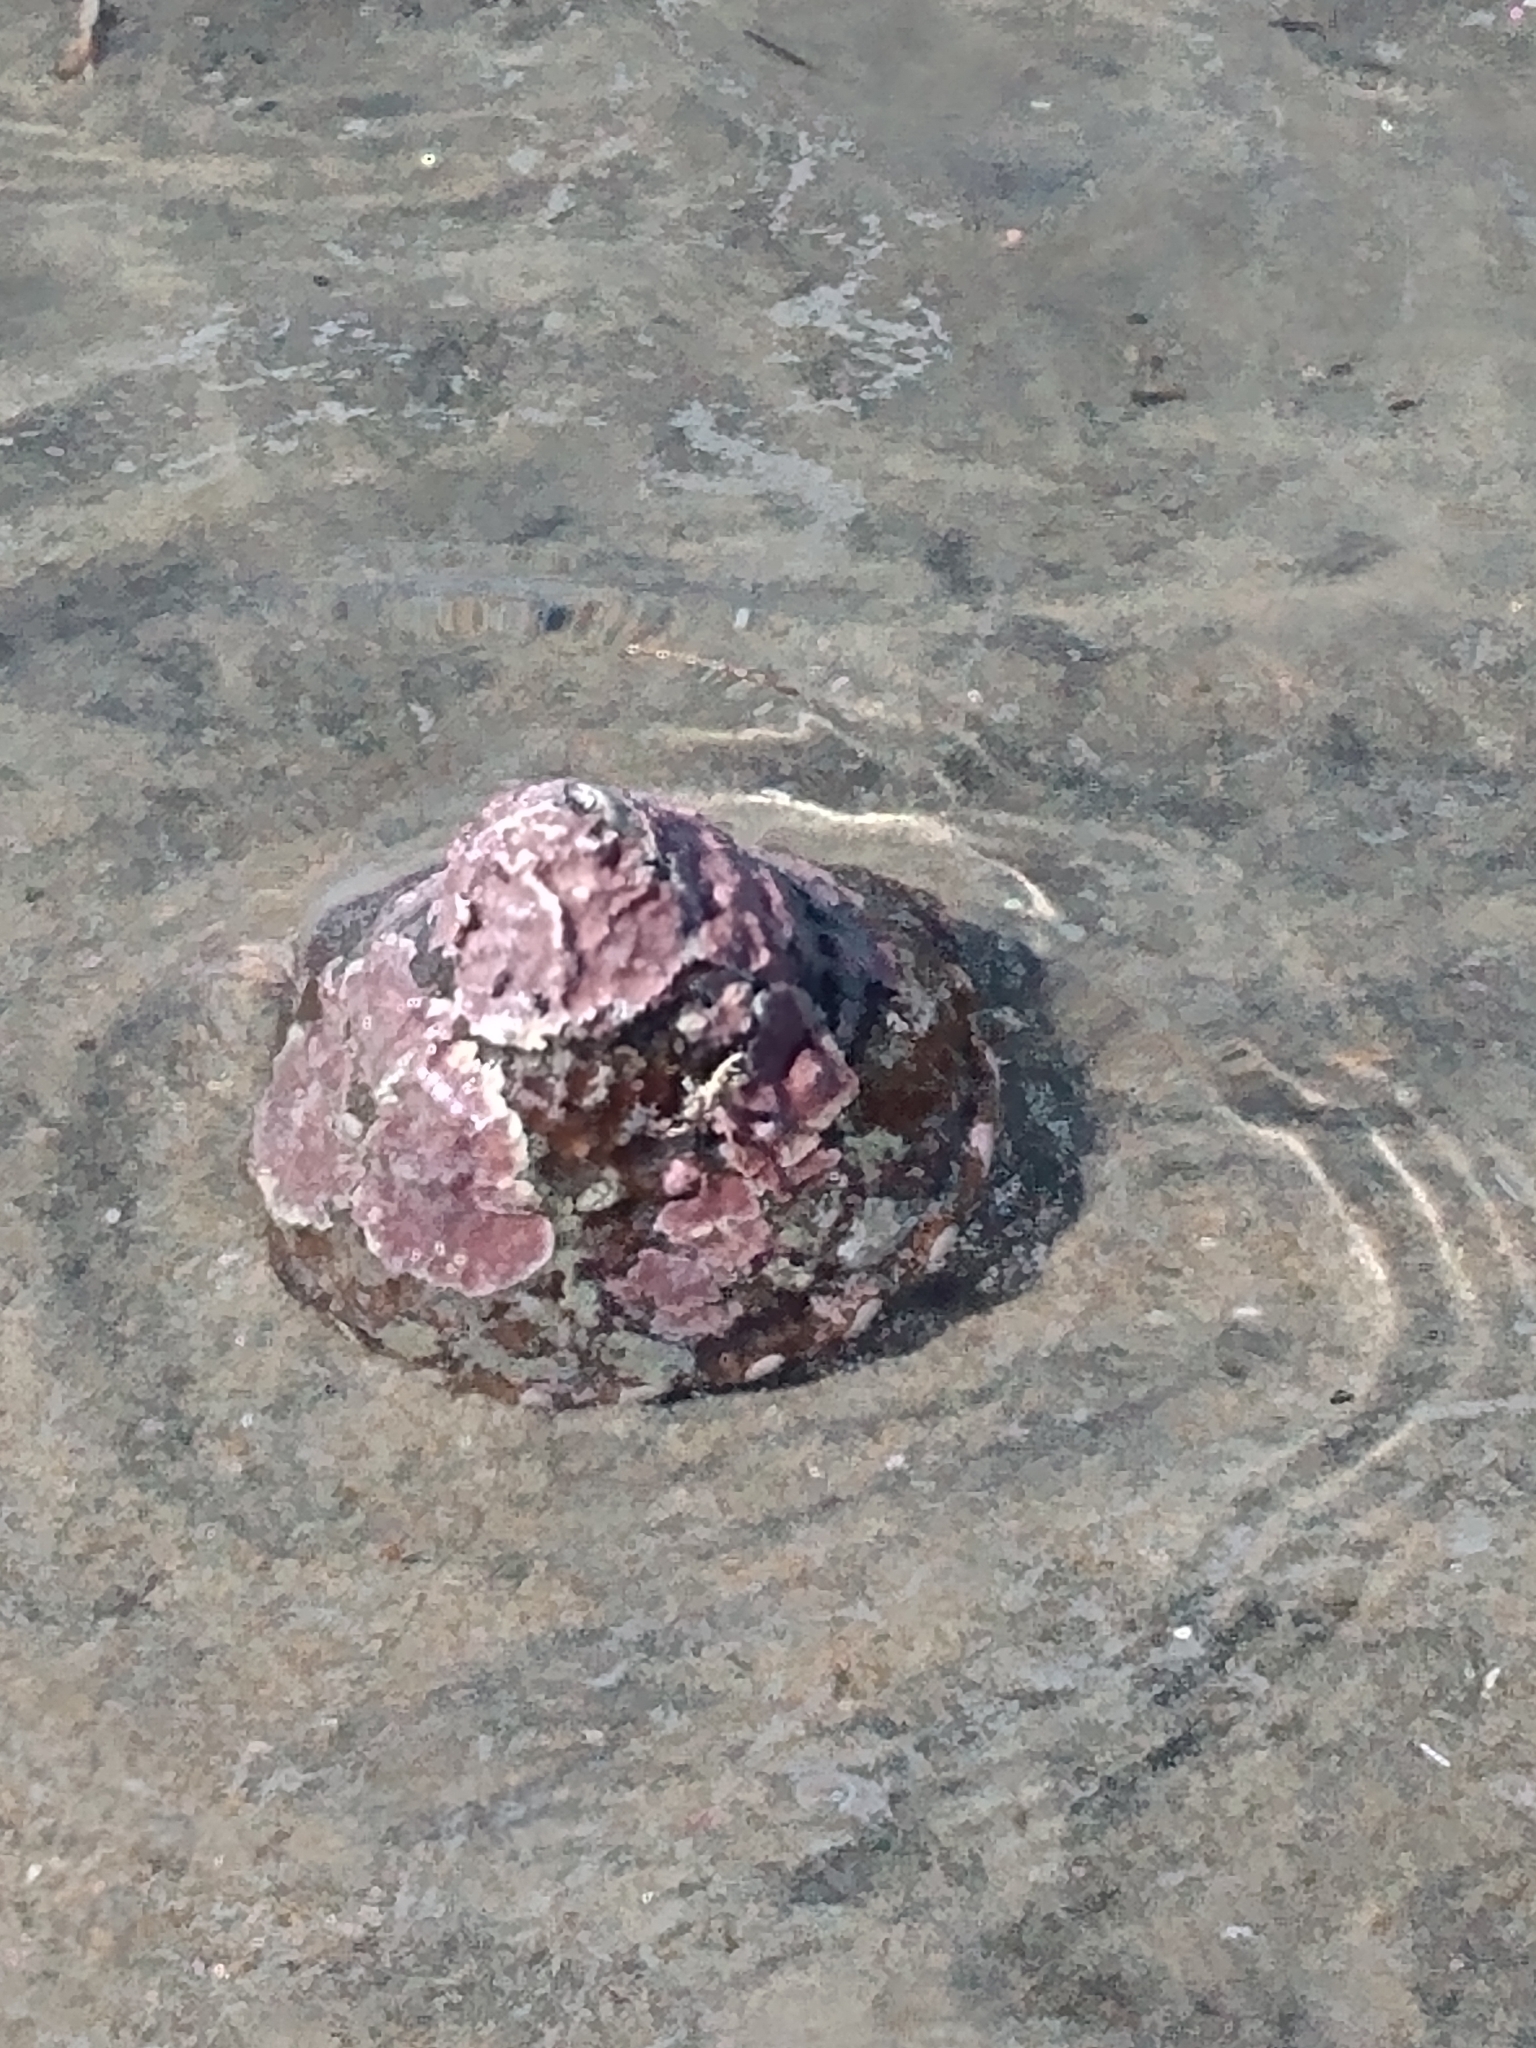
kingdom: Animalia
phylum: Mollusca
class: Gastropoda
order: Trochida
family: Turbinidae
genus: Megastraea
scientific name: Megastraea undosa
